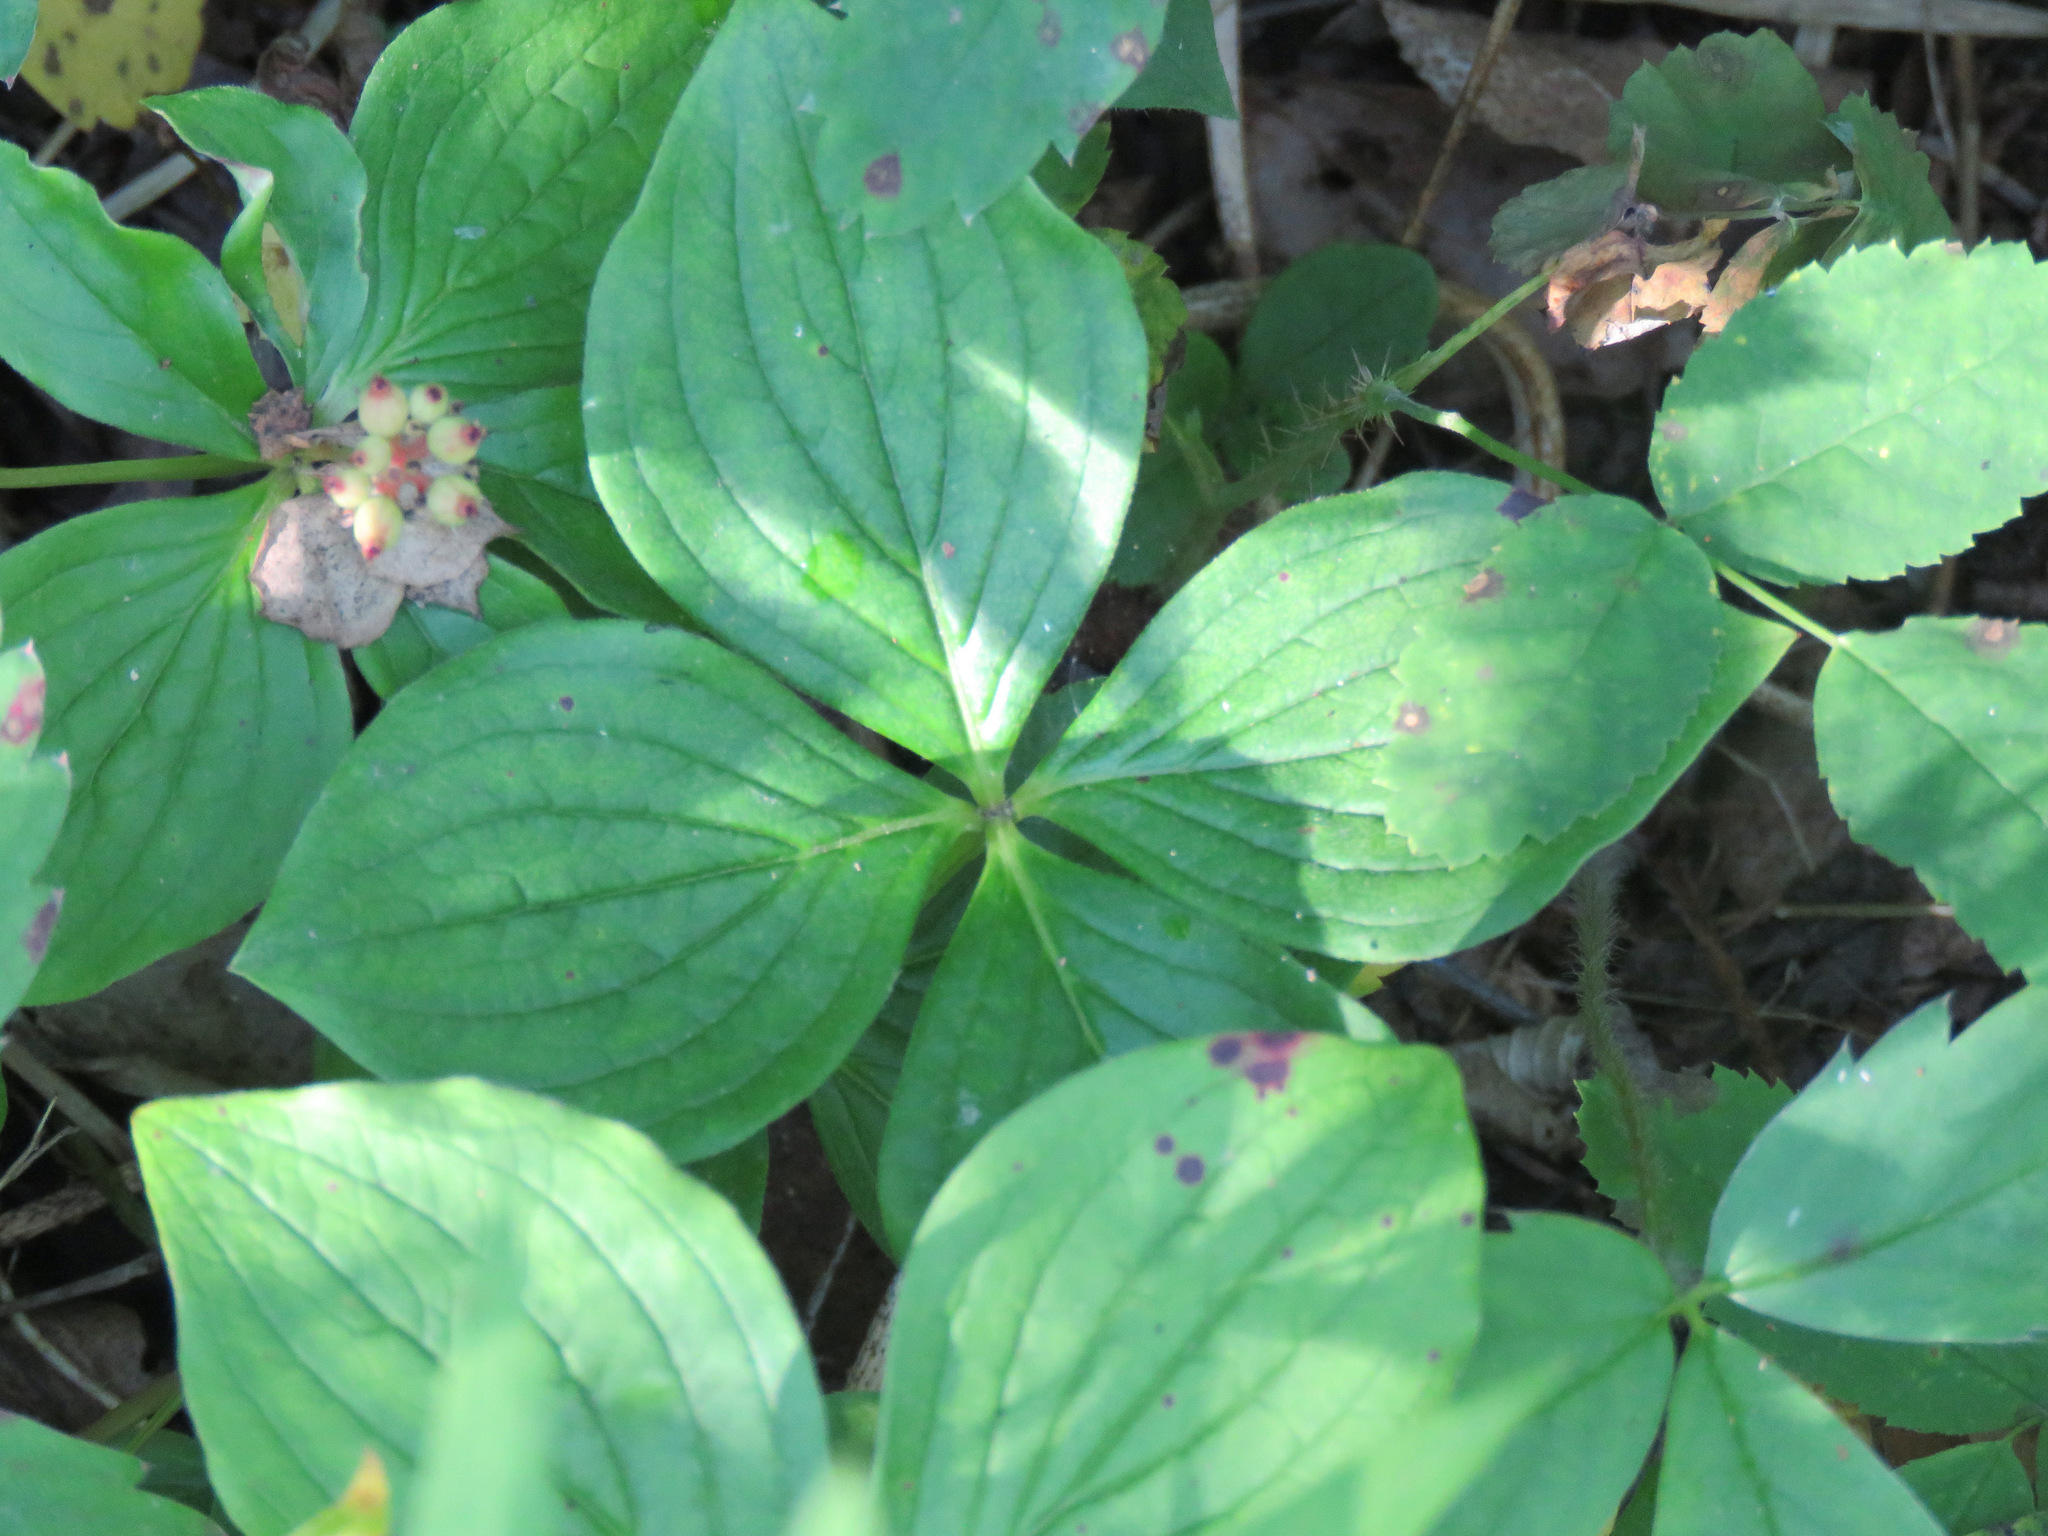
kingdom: Plantae
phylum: Tracheophyta
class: Magnoliopsida
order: Cornales
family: Cornaceae
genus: Cornus
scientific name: Cornus canadensis
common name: Creeping dogwood
